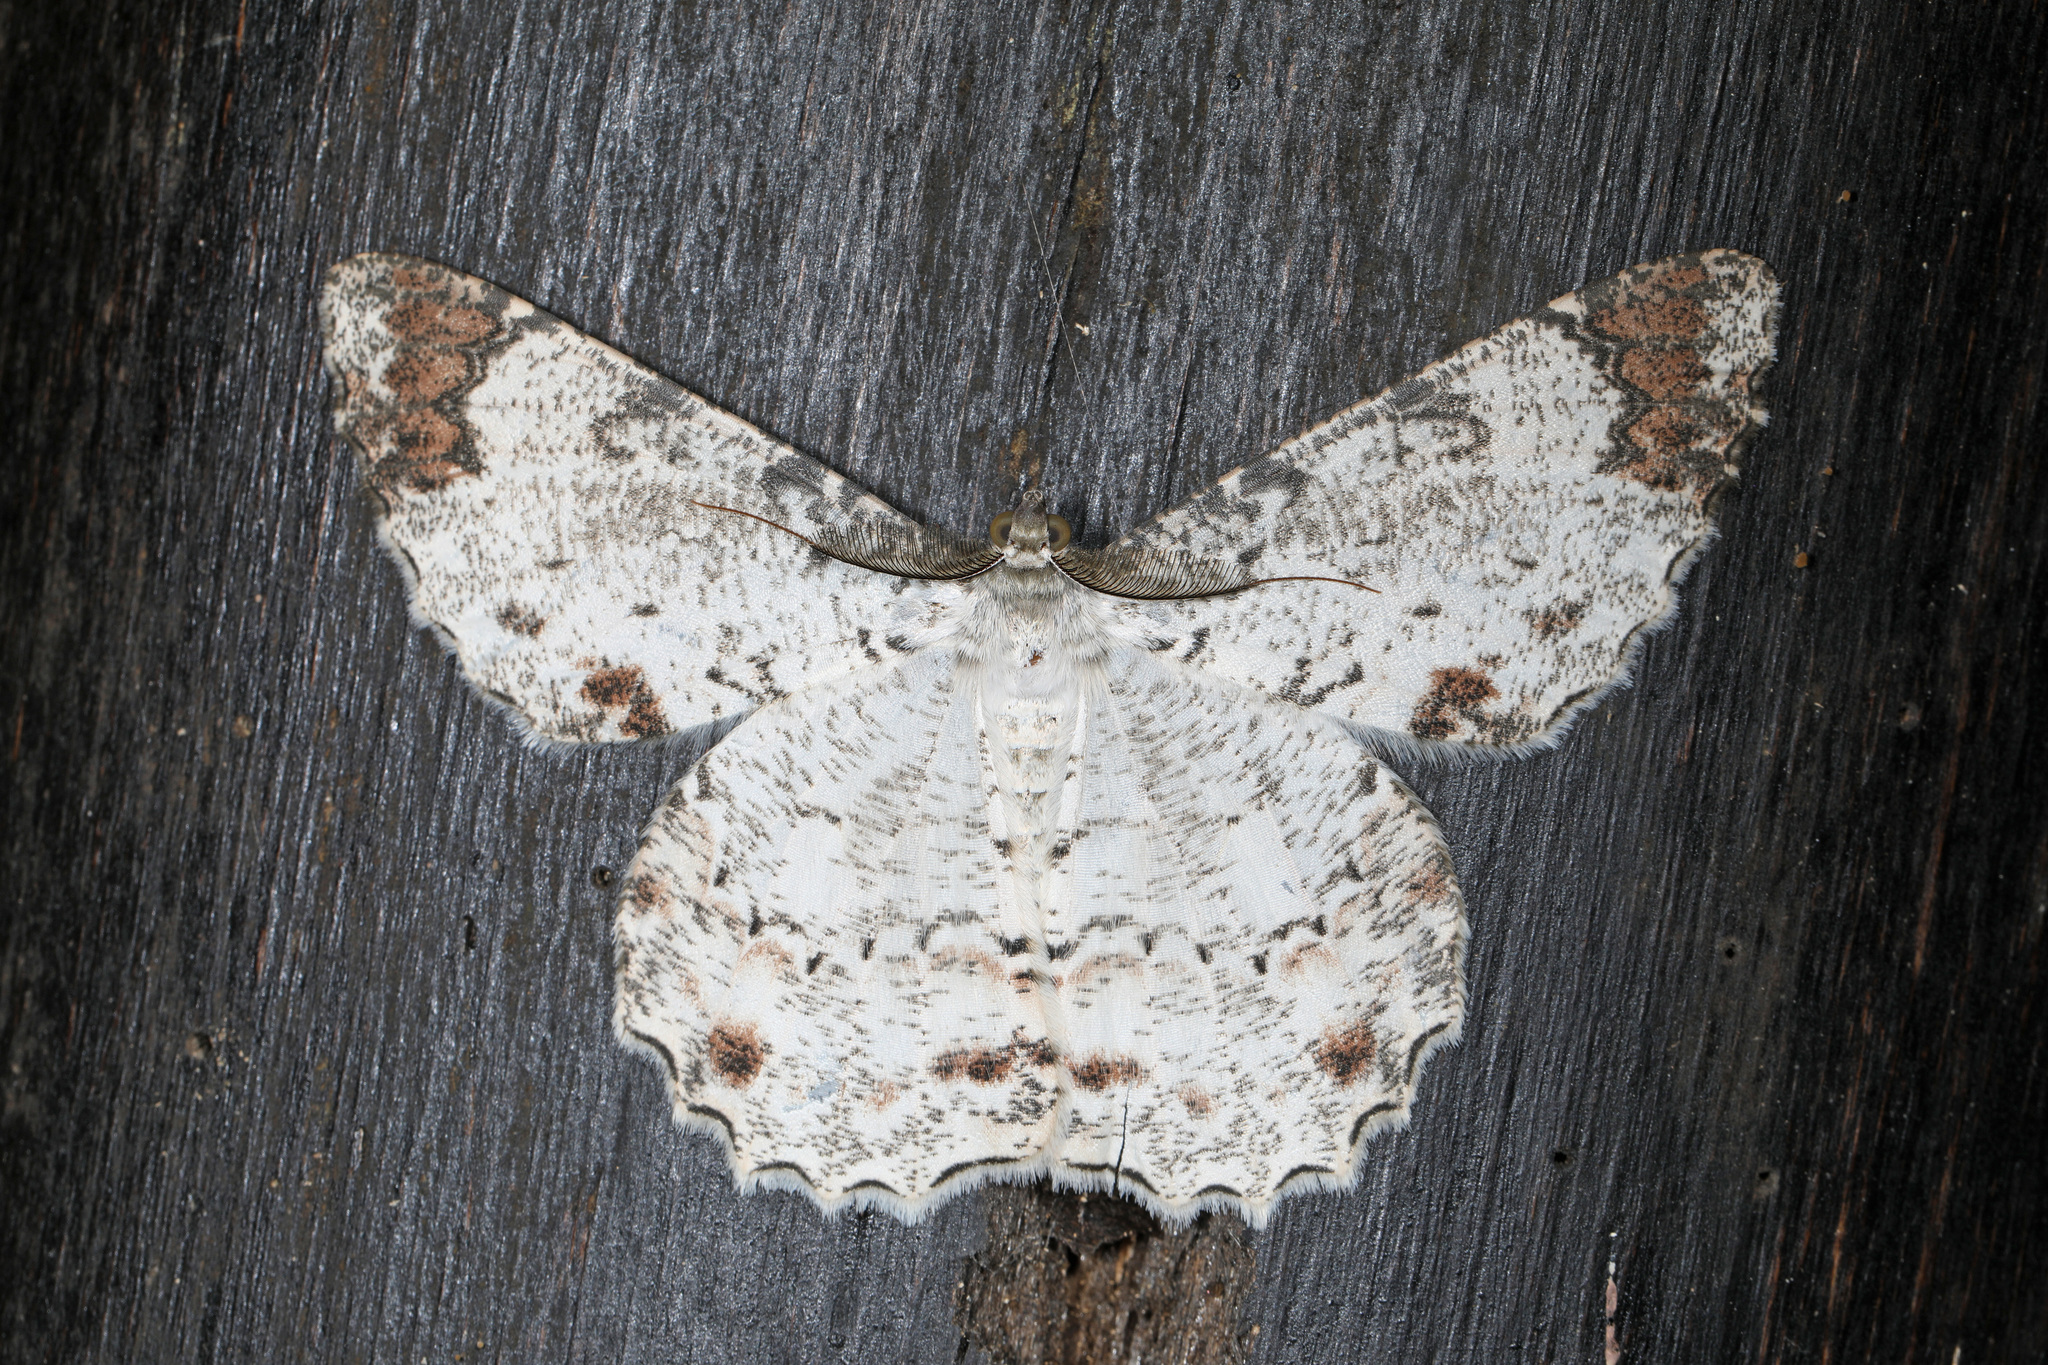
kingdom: Animalia
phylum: Arthropoda
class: Insecta
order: Lepidoptera
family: Geometridae
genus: Epimecis
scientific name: Epimecis anonaria
